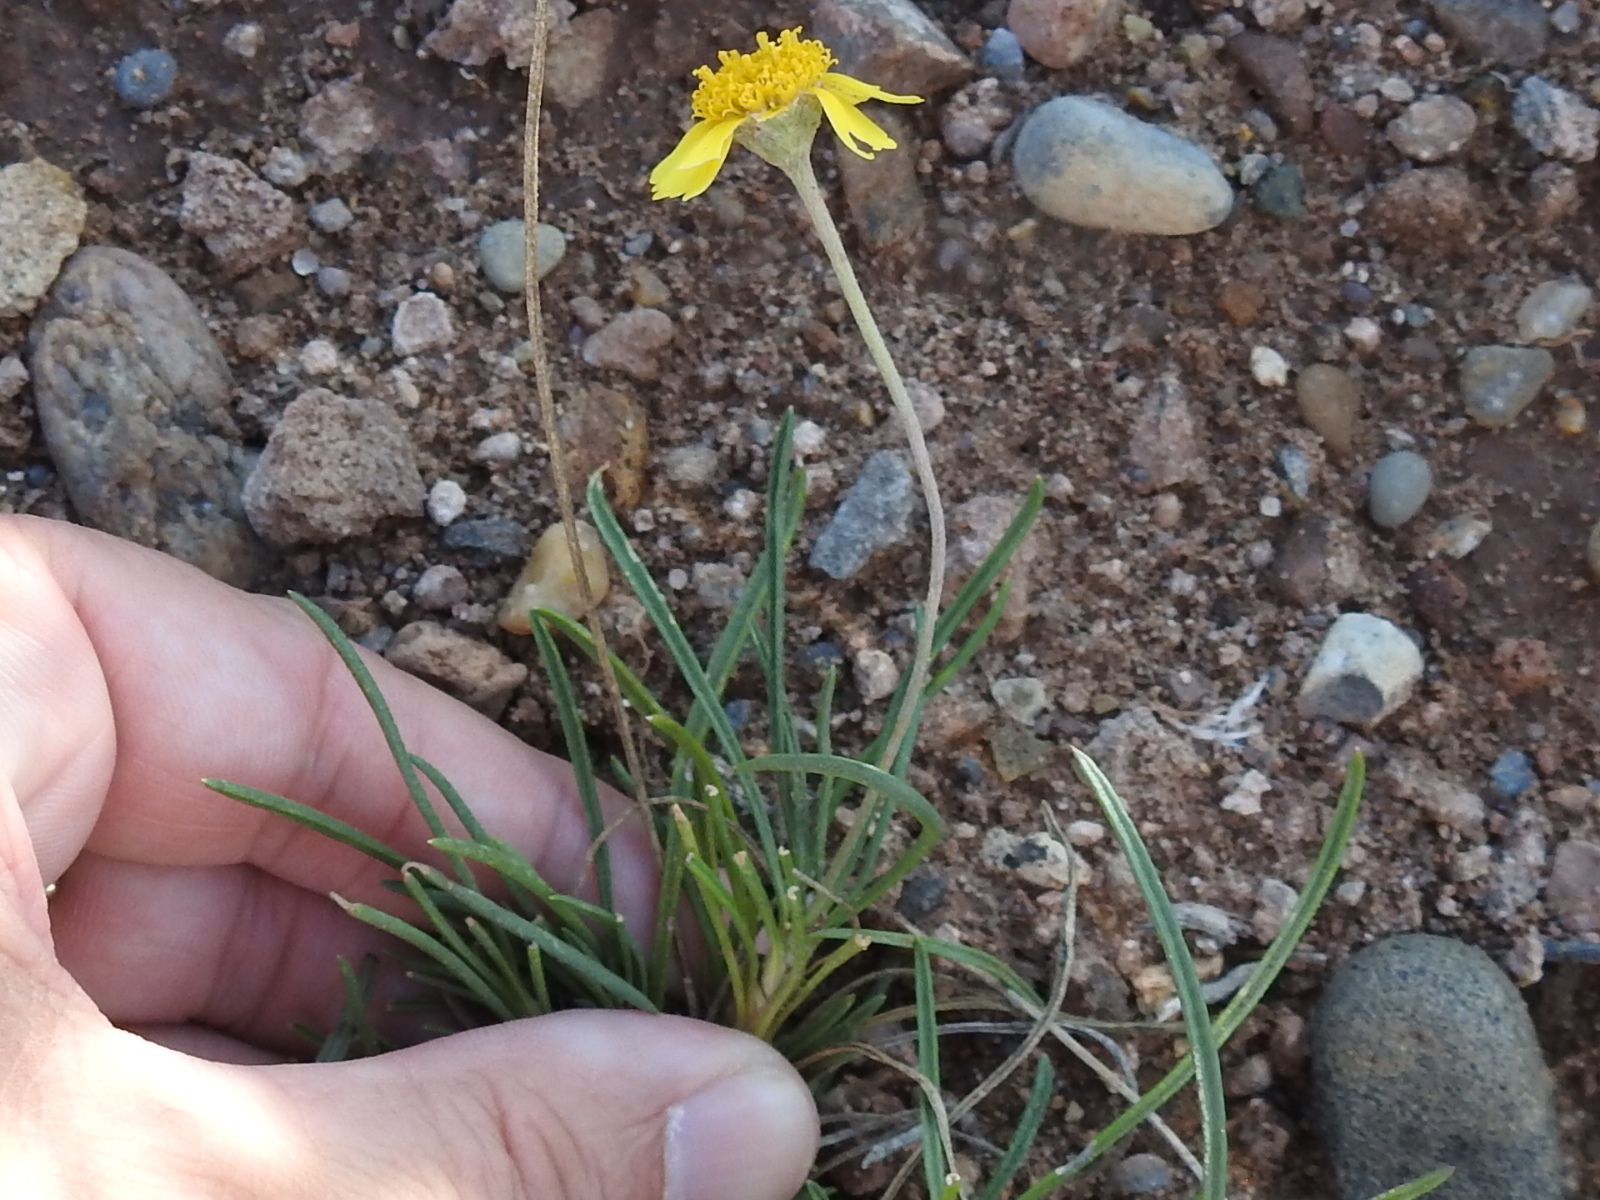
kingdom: Plantae
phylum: Tracheophyta
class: Magnoliopsida
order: Asterales
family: Asteraceae
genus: Tetraneuris
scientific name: Tetraneuris scaposa
